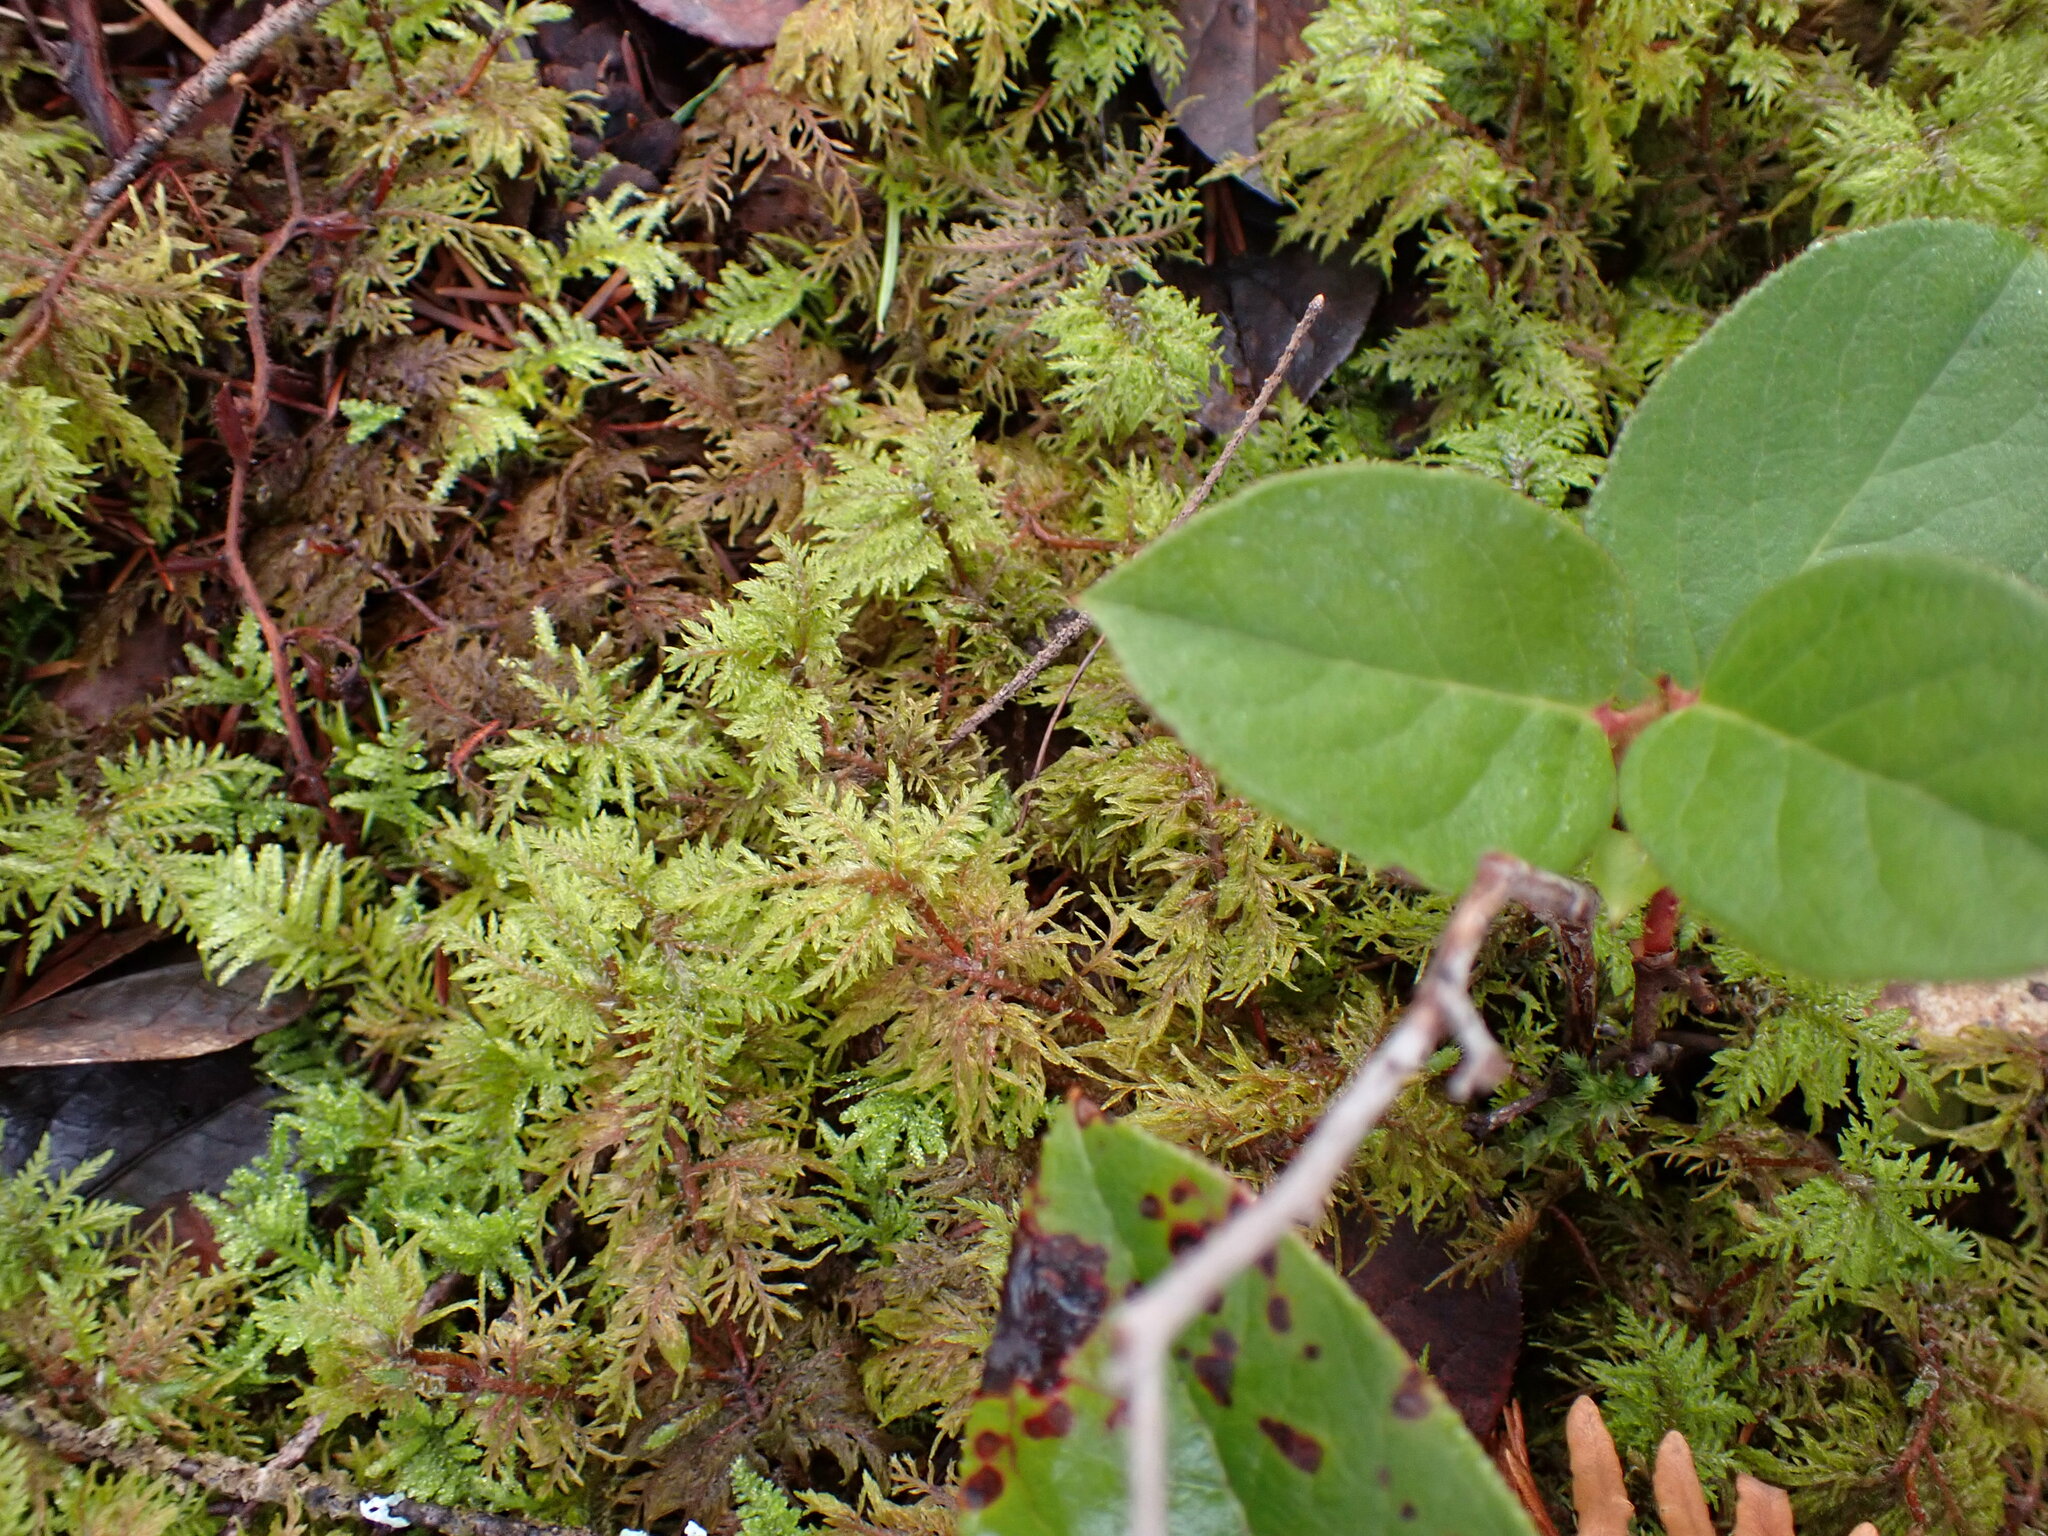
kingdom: Plantae
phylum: Bryophyta
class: Bryopsida
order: Hypnales
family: Hylocomiaceae
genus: Hylocomium
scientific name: Hylocomium splendens
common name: Stairstep moss
